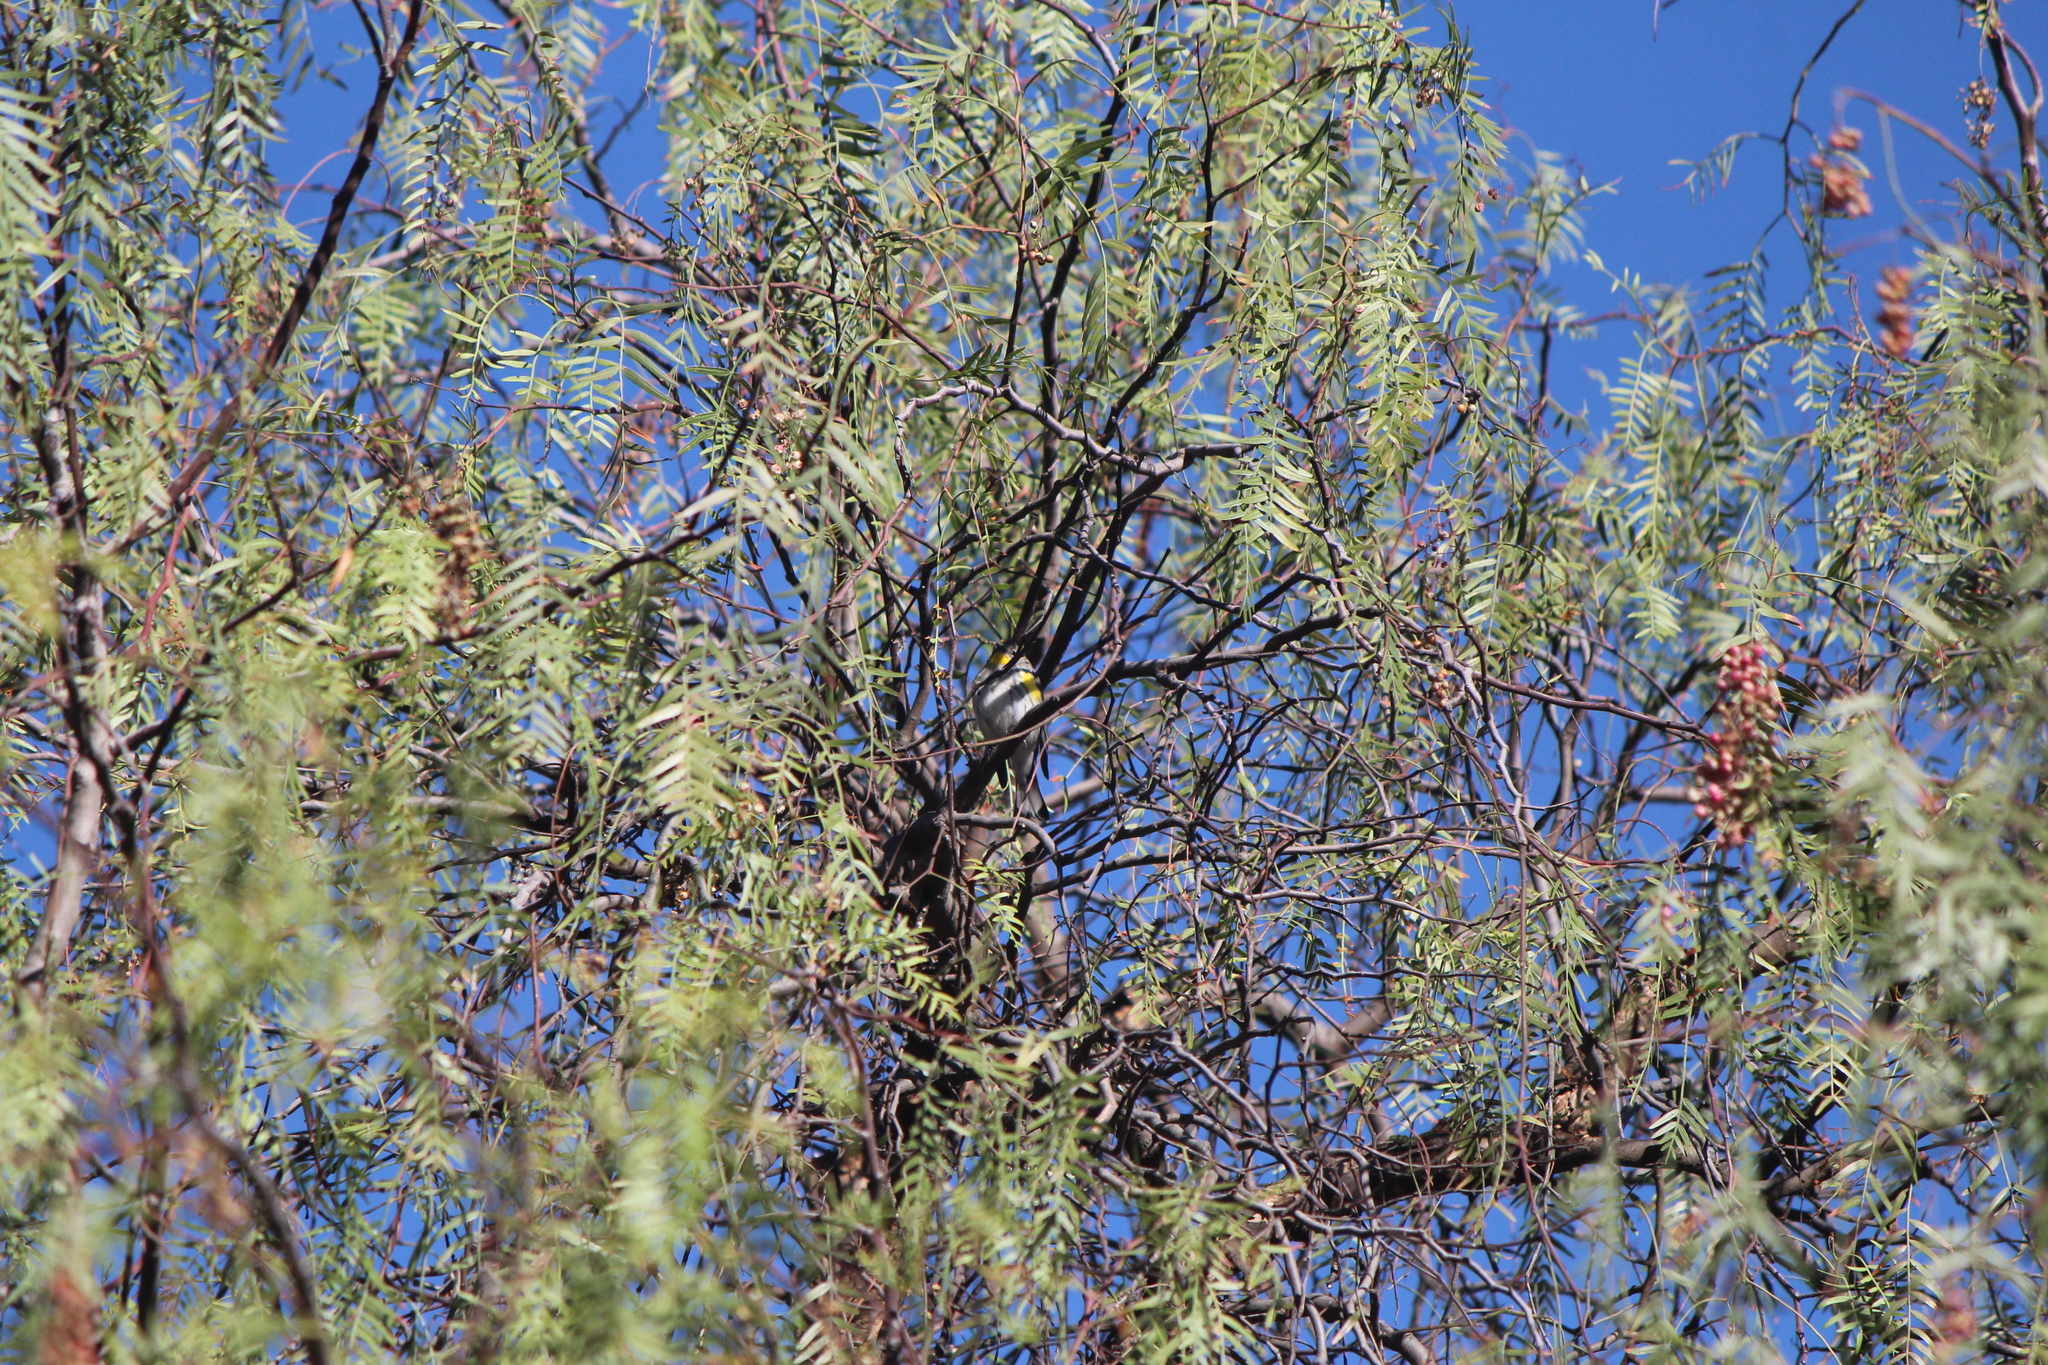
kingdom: Animalia
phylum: Chordata
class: Aves
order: Passeriformes
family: Parulidae
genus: Setophaga
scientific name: Setophaga auduboni
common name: Audubon's warbler
